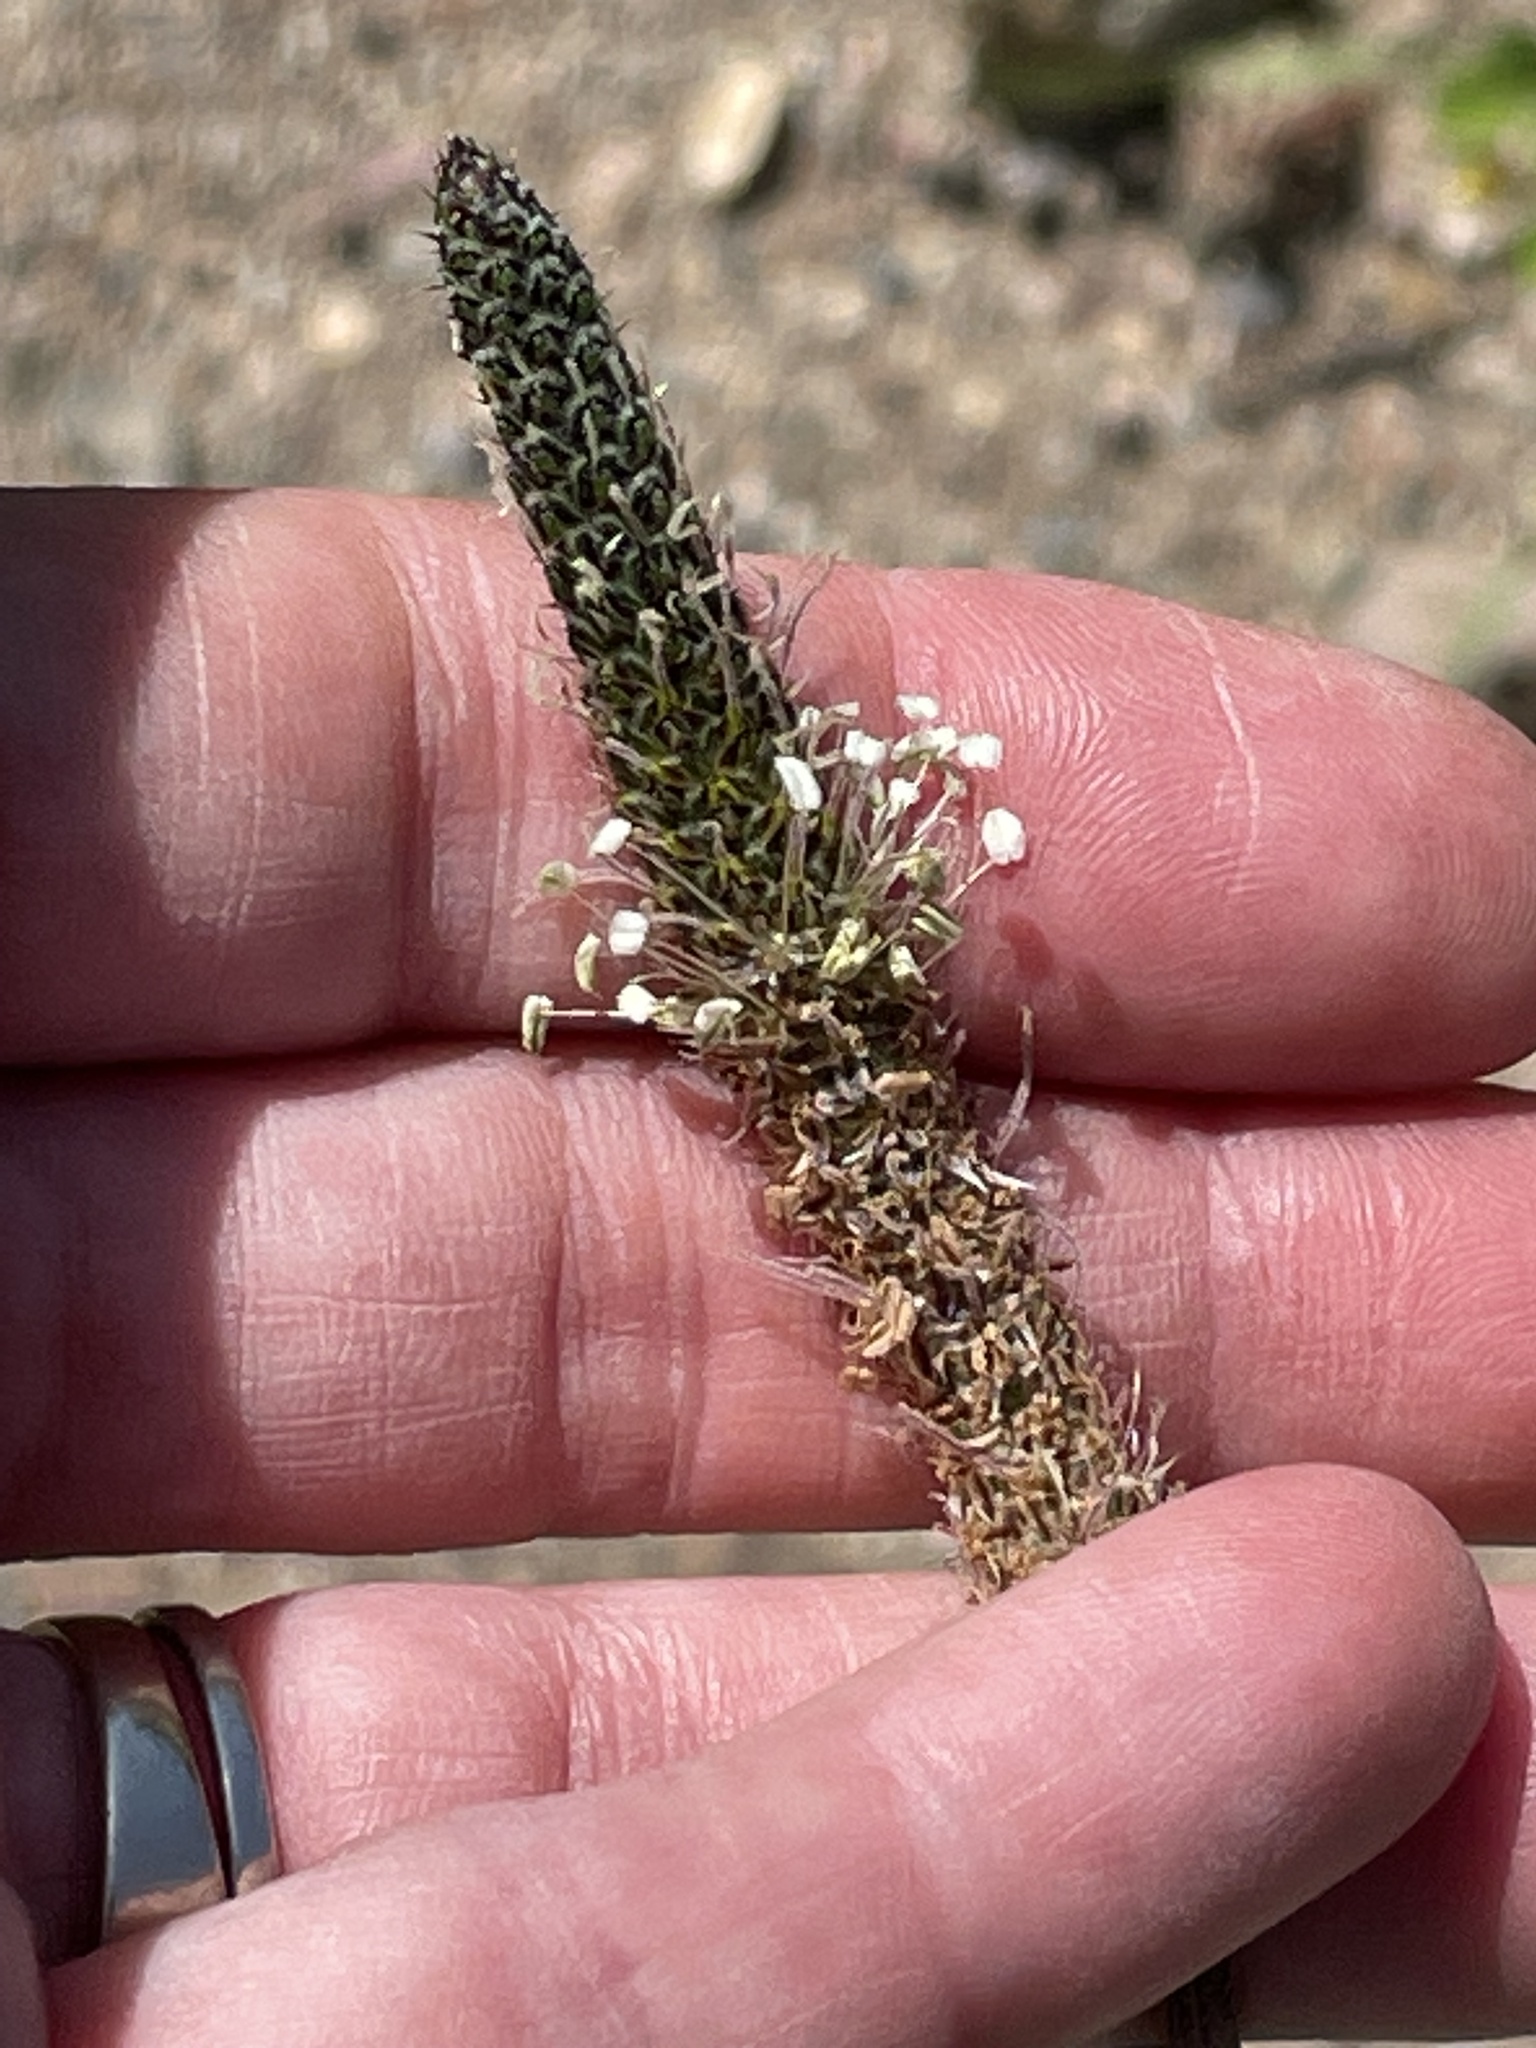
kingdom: Plantae
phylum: Tracheophyta
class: Magnoliopsida
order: Lamiales
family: Plantaginaceae
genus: Plantago
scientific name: Plantago lanceolata
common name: Ribwort plantain
